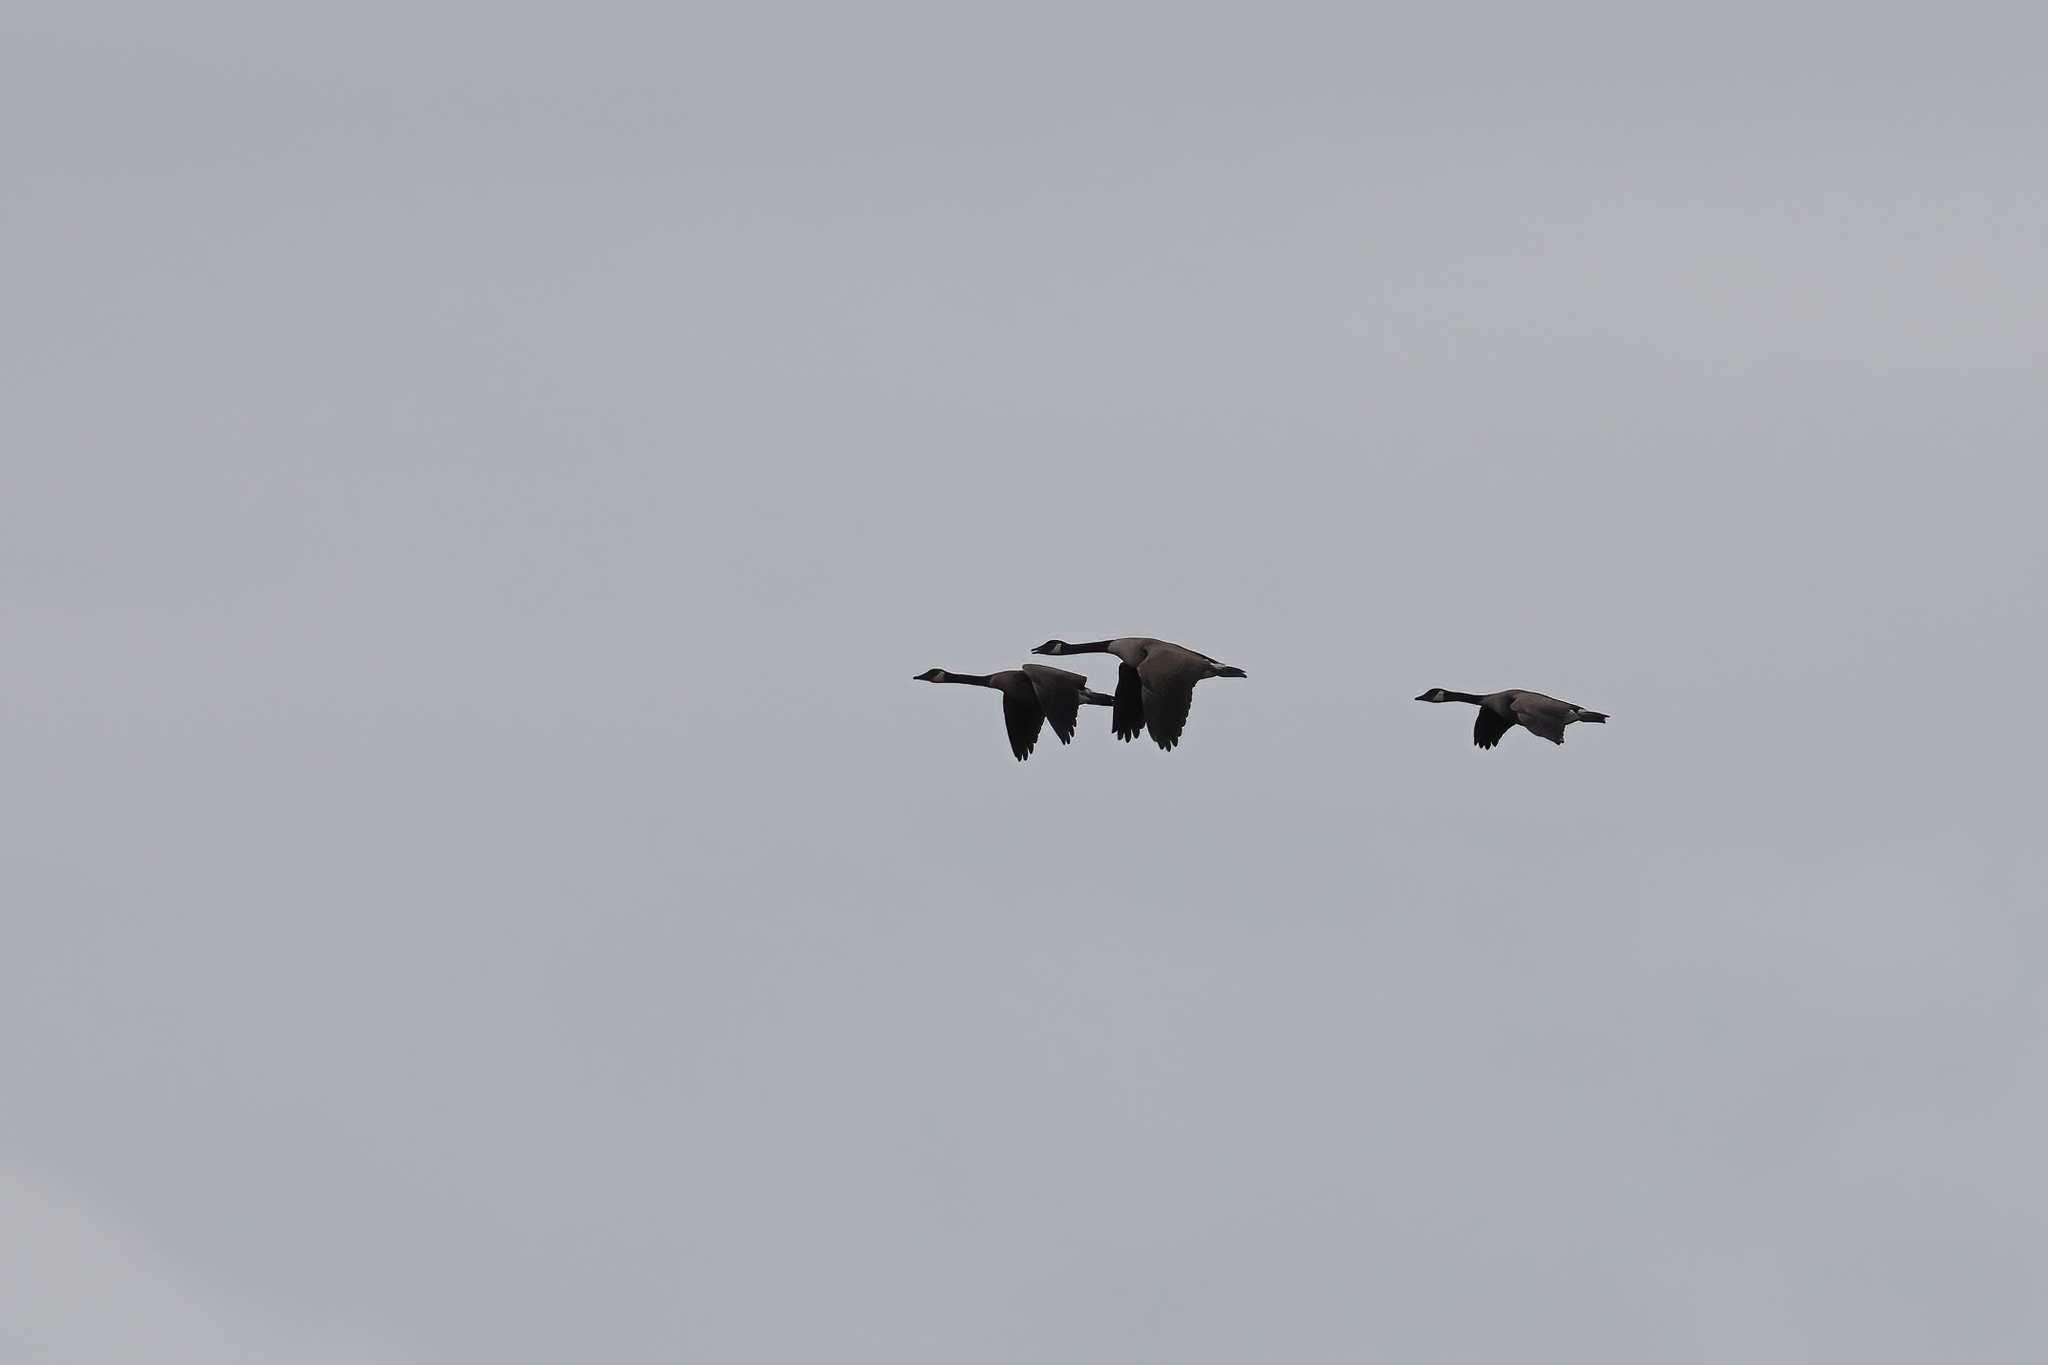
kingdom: Animalia
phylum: Chordata
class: Aves
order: Anseriformes
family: Anatidae
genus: Branta
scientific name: Branta canadensis
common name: Canada goose
